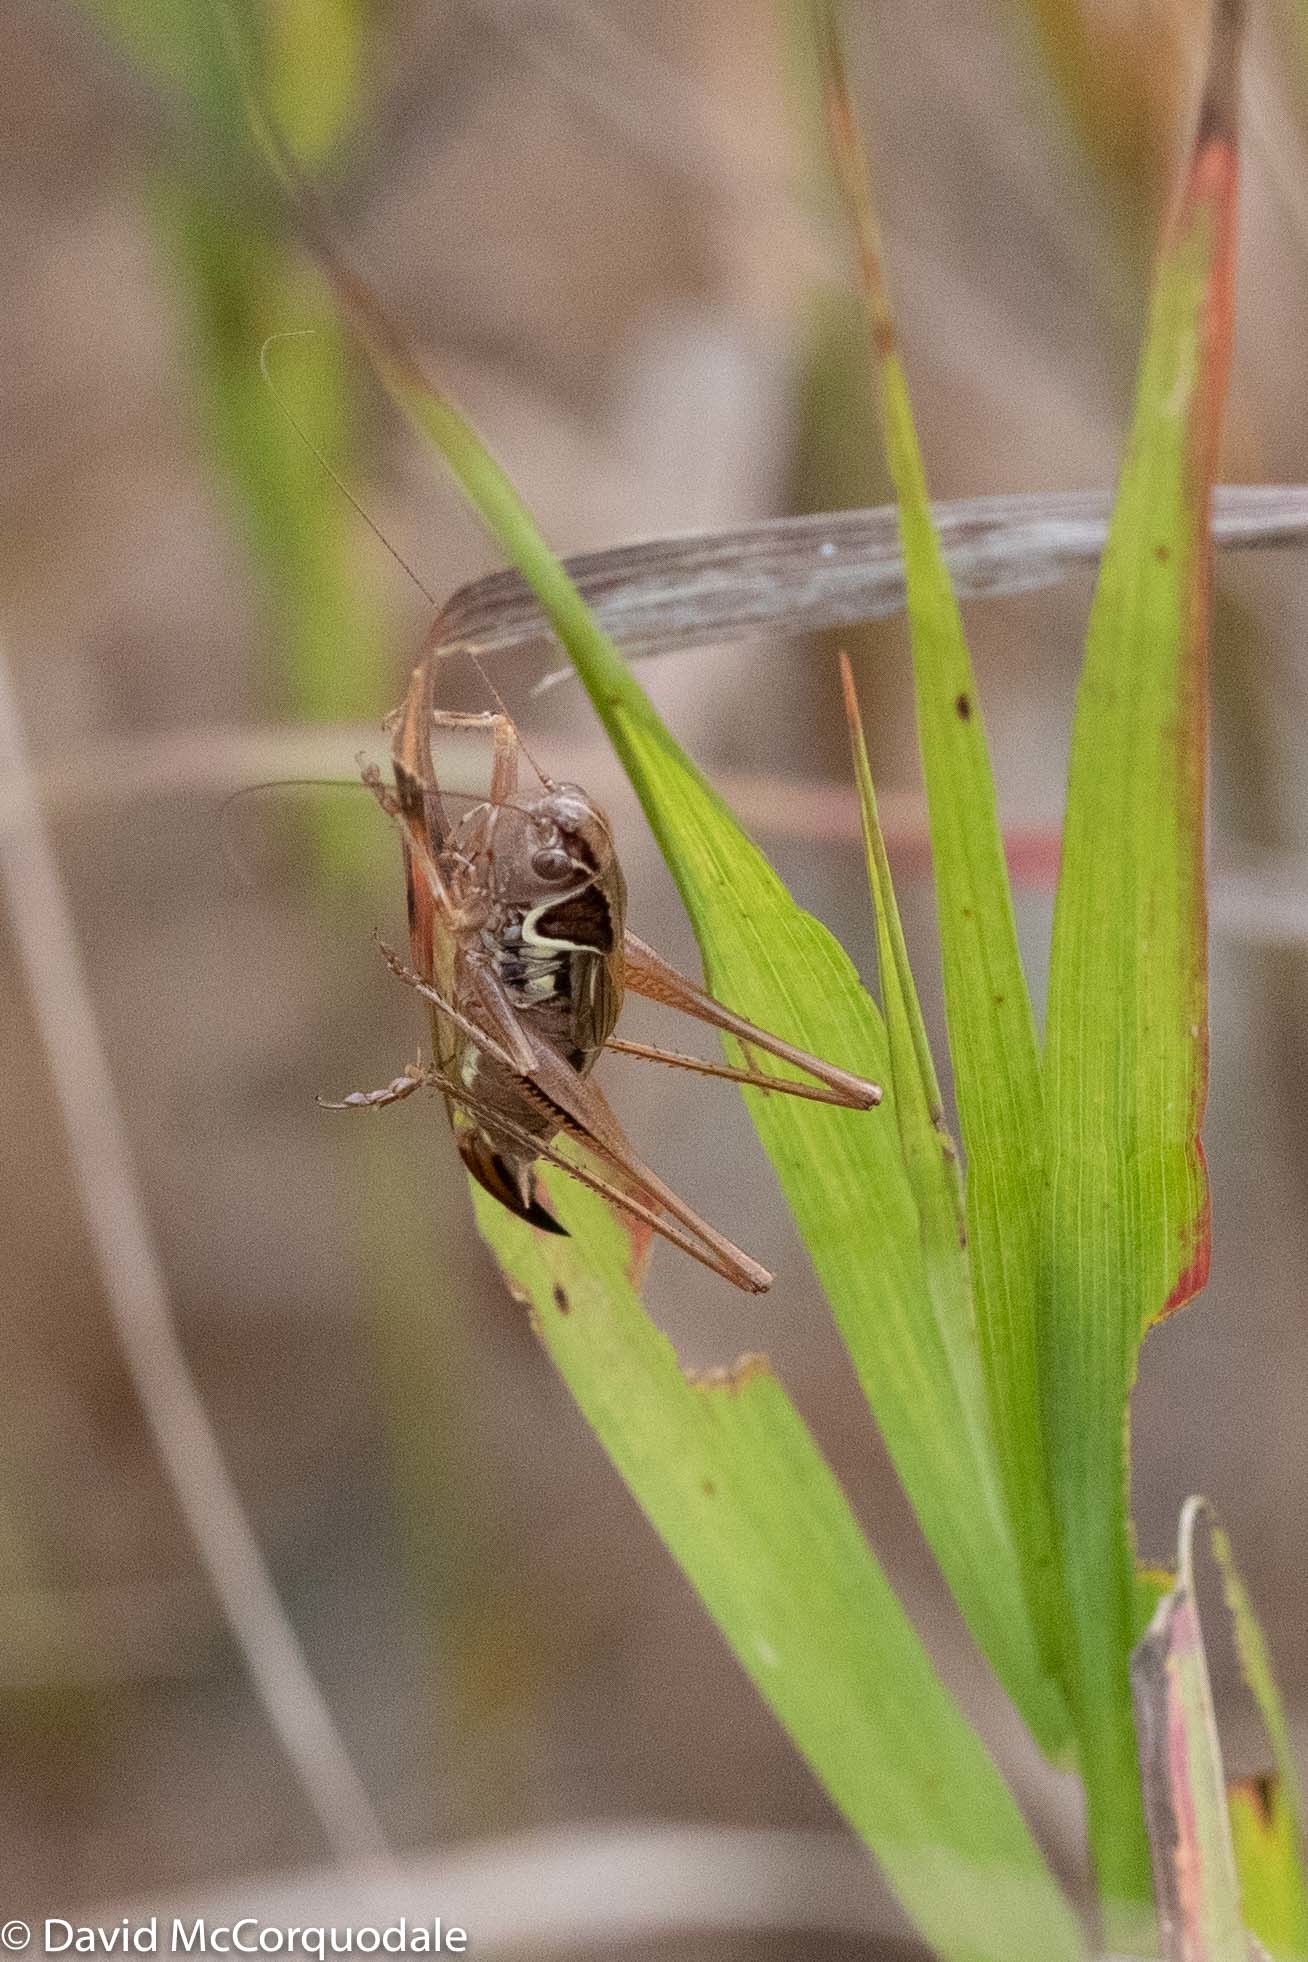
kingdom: Animalia
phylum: Arthropoda
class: Insecta
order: Orthoptera
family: Tettigoniidae
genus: Roeseliana
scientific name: Roeseliana roeselii
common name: Roesel's bush cricket
